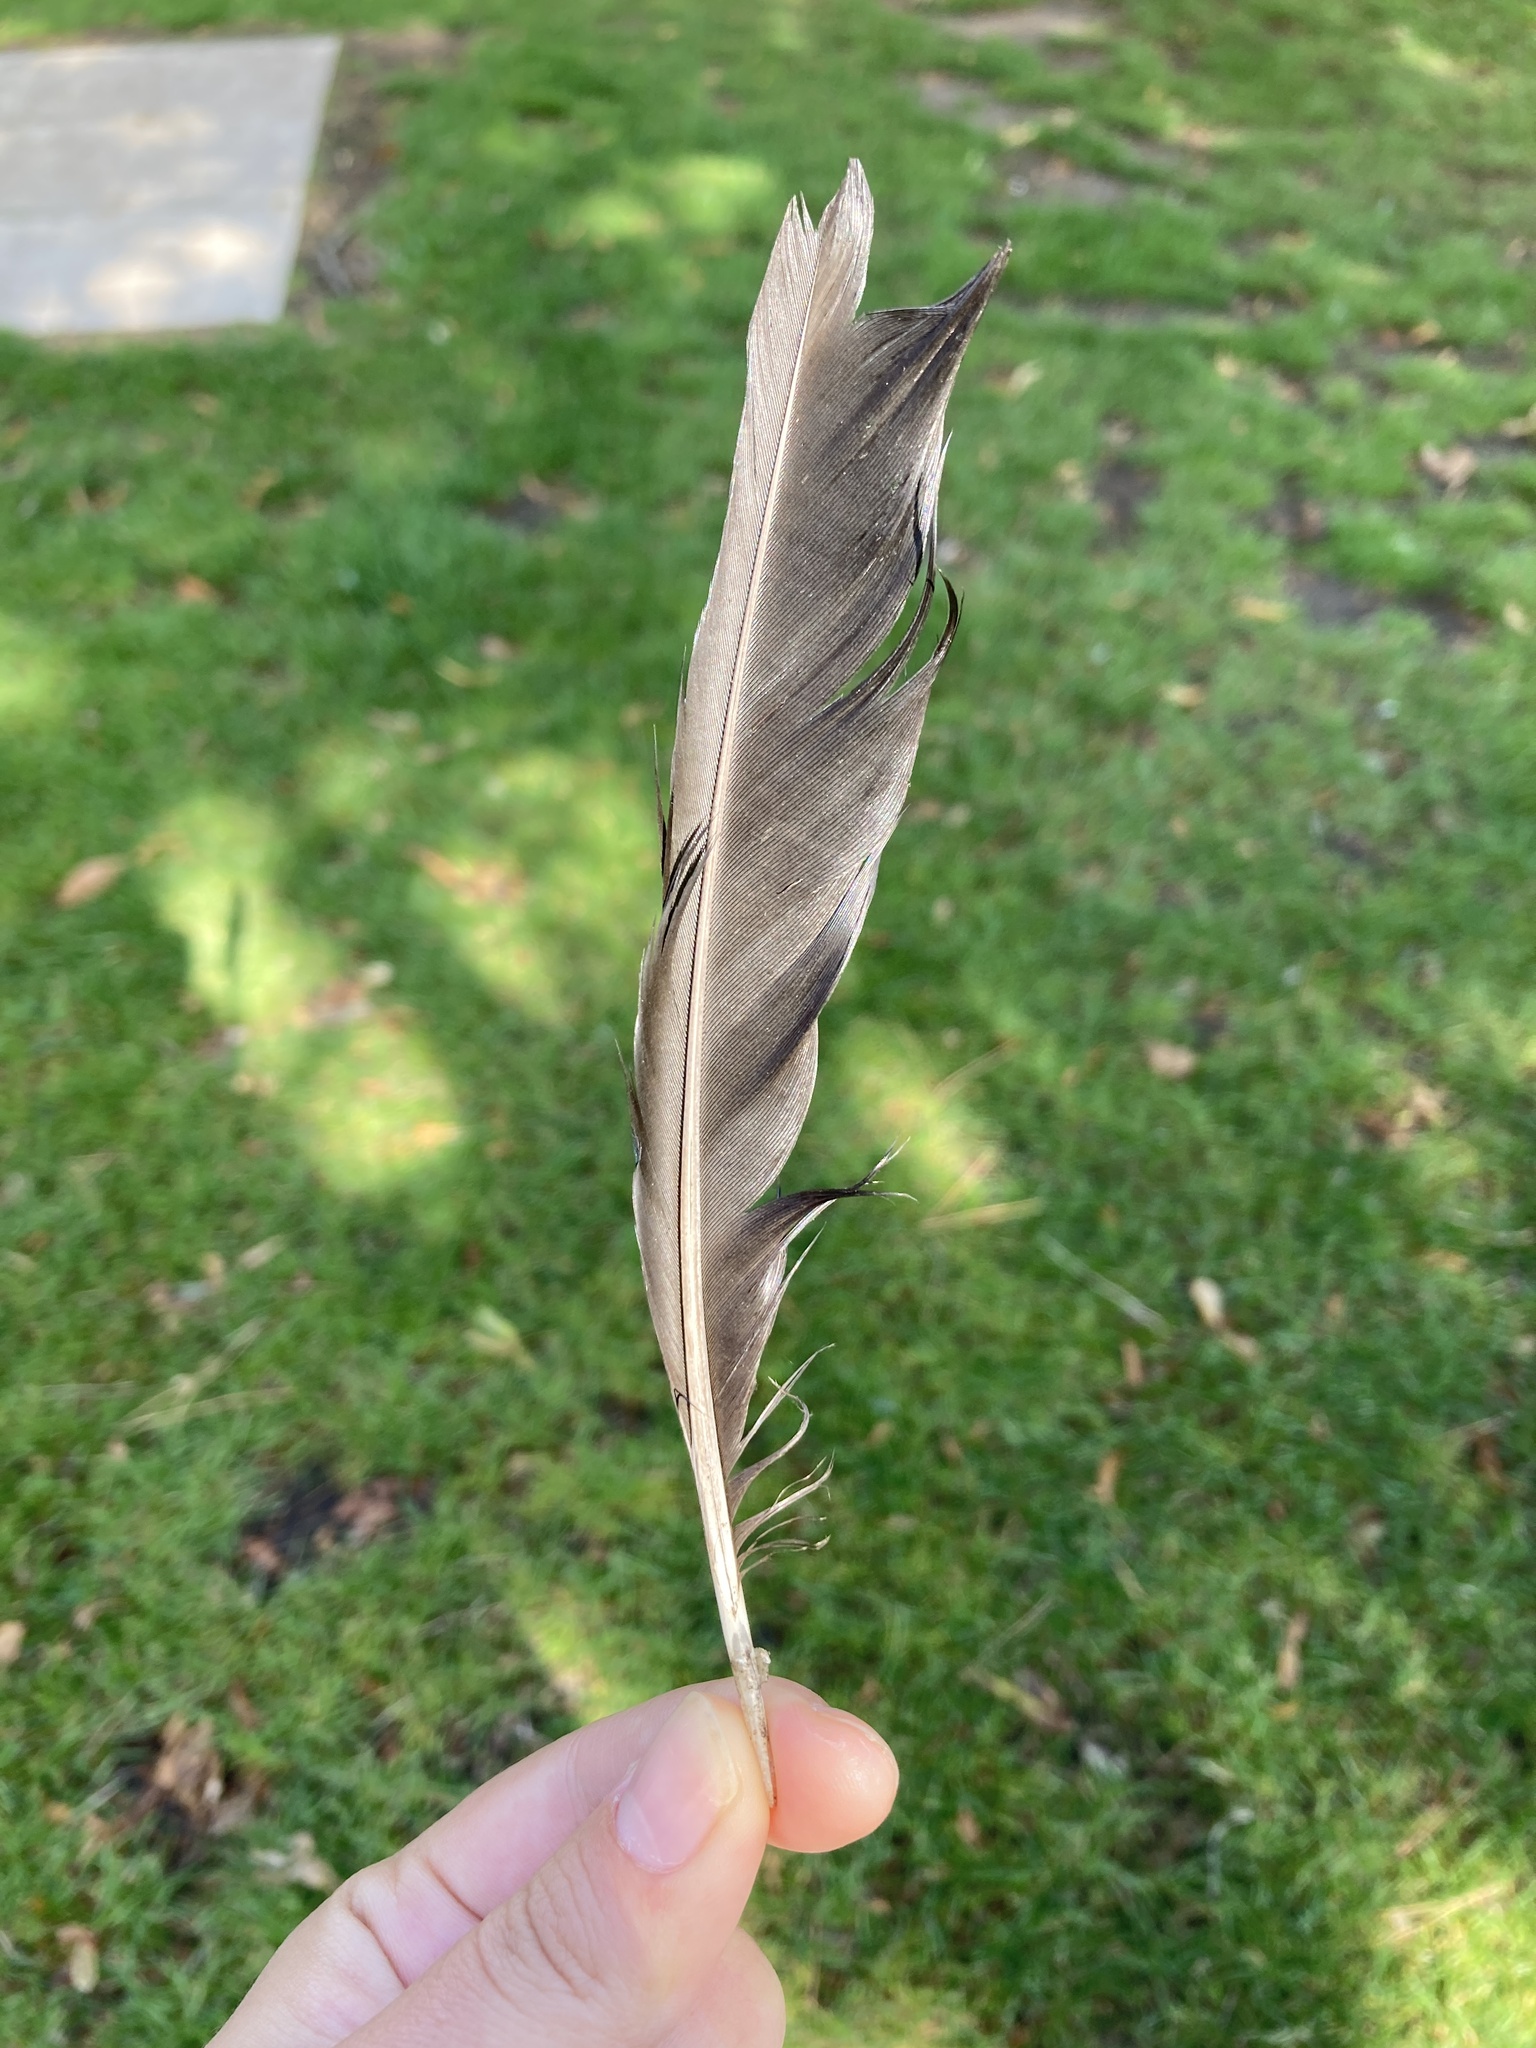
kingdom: Animalia
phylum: Chordata
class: Aves
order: Passeriformes
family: Corvidae
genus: Pica
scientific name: Pica pica
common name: Eurasian magpie
